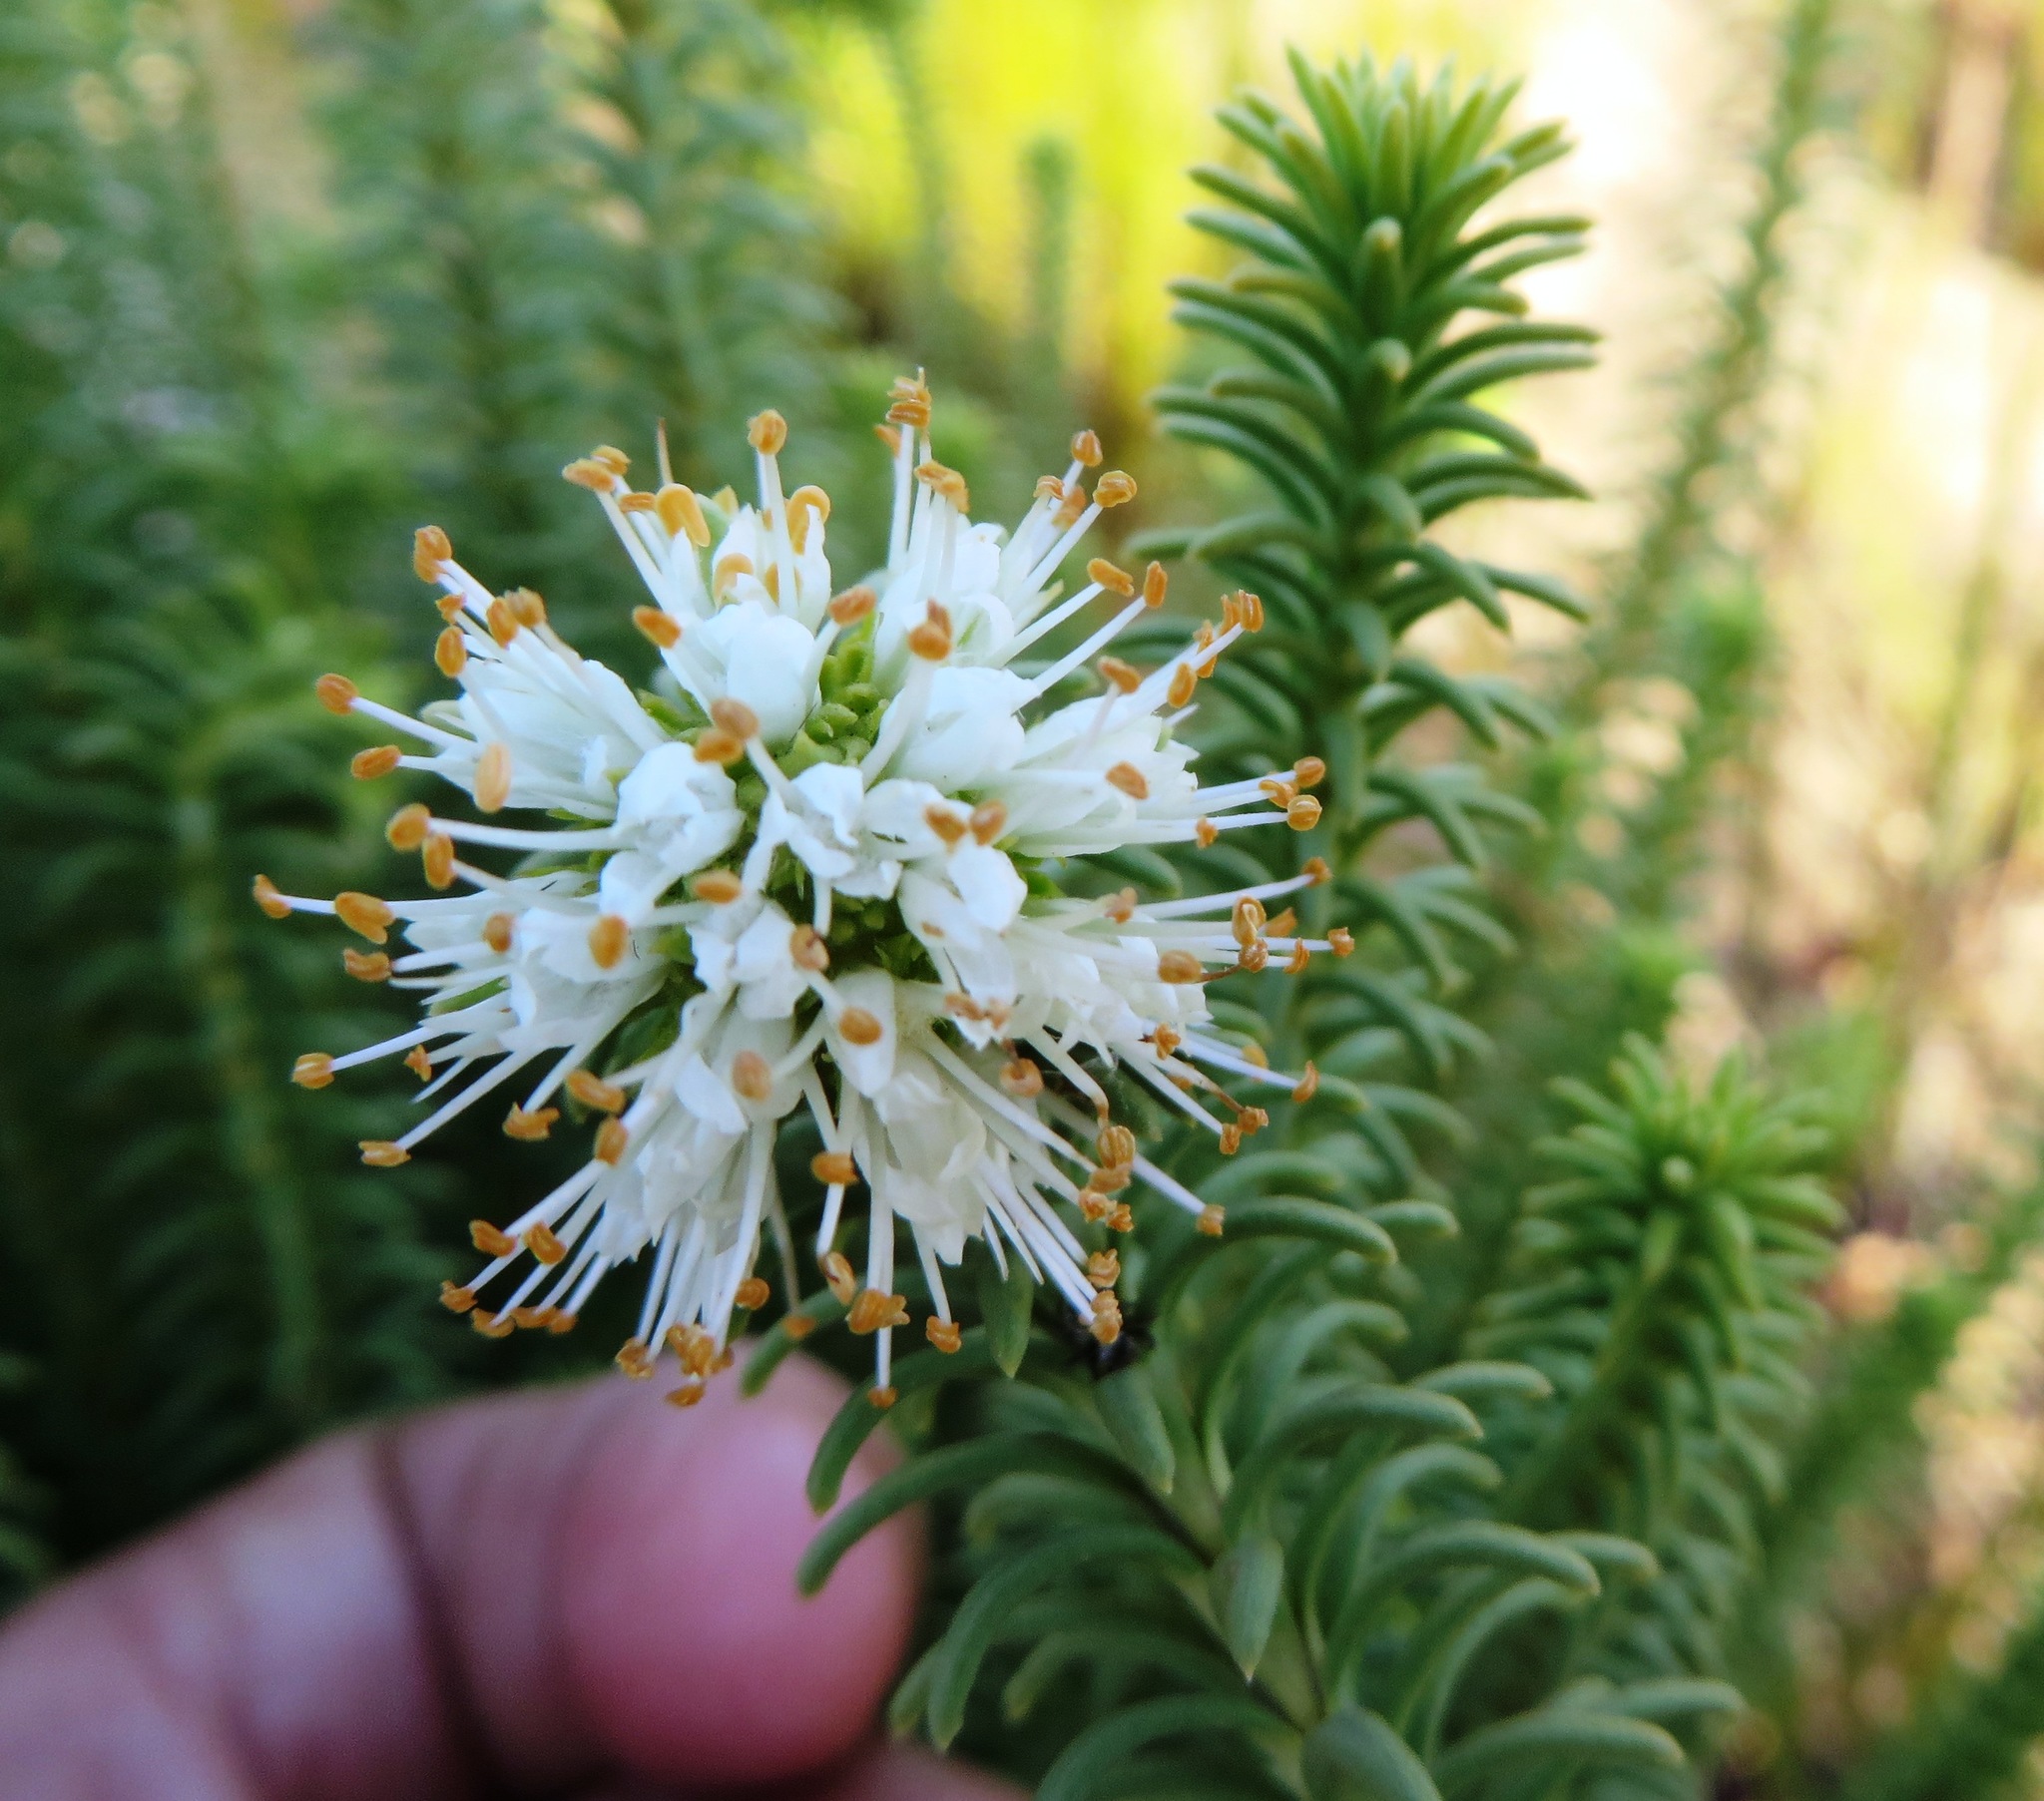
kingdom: Plantae
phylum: Tracheophyta
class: Magnoliopsida
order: Lamiales
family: Stilbaceae
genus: Campylostachys
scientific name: Campylostachys cernua
